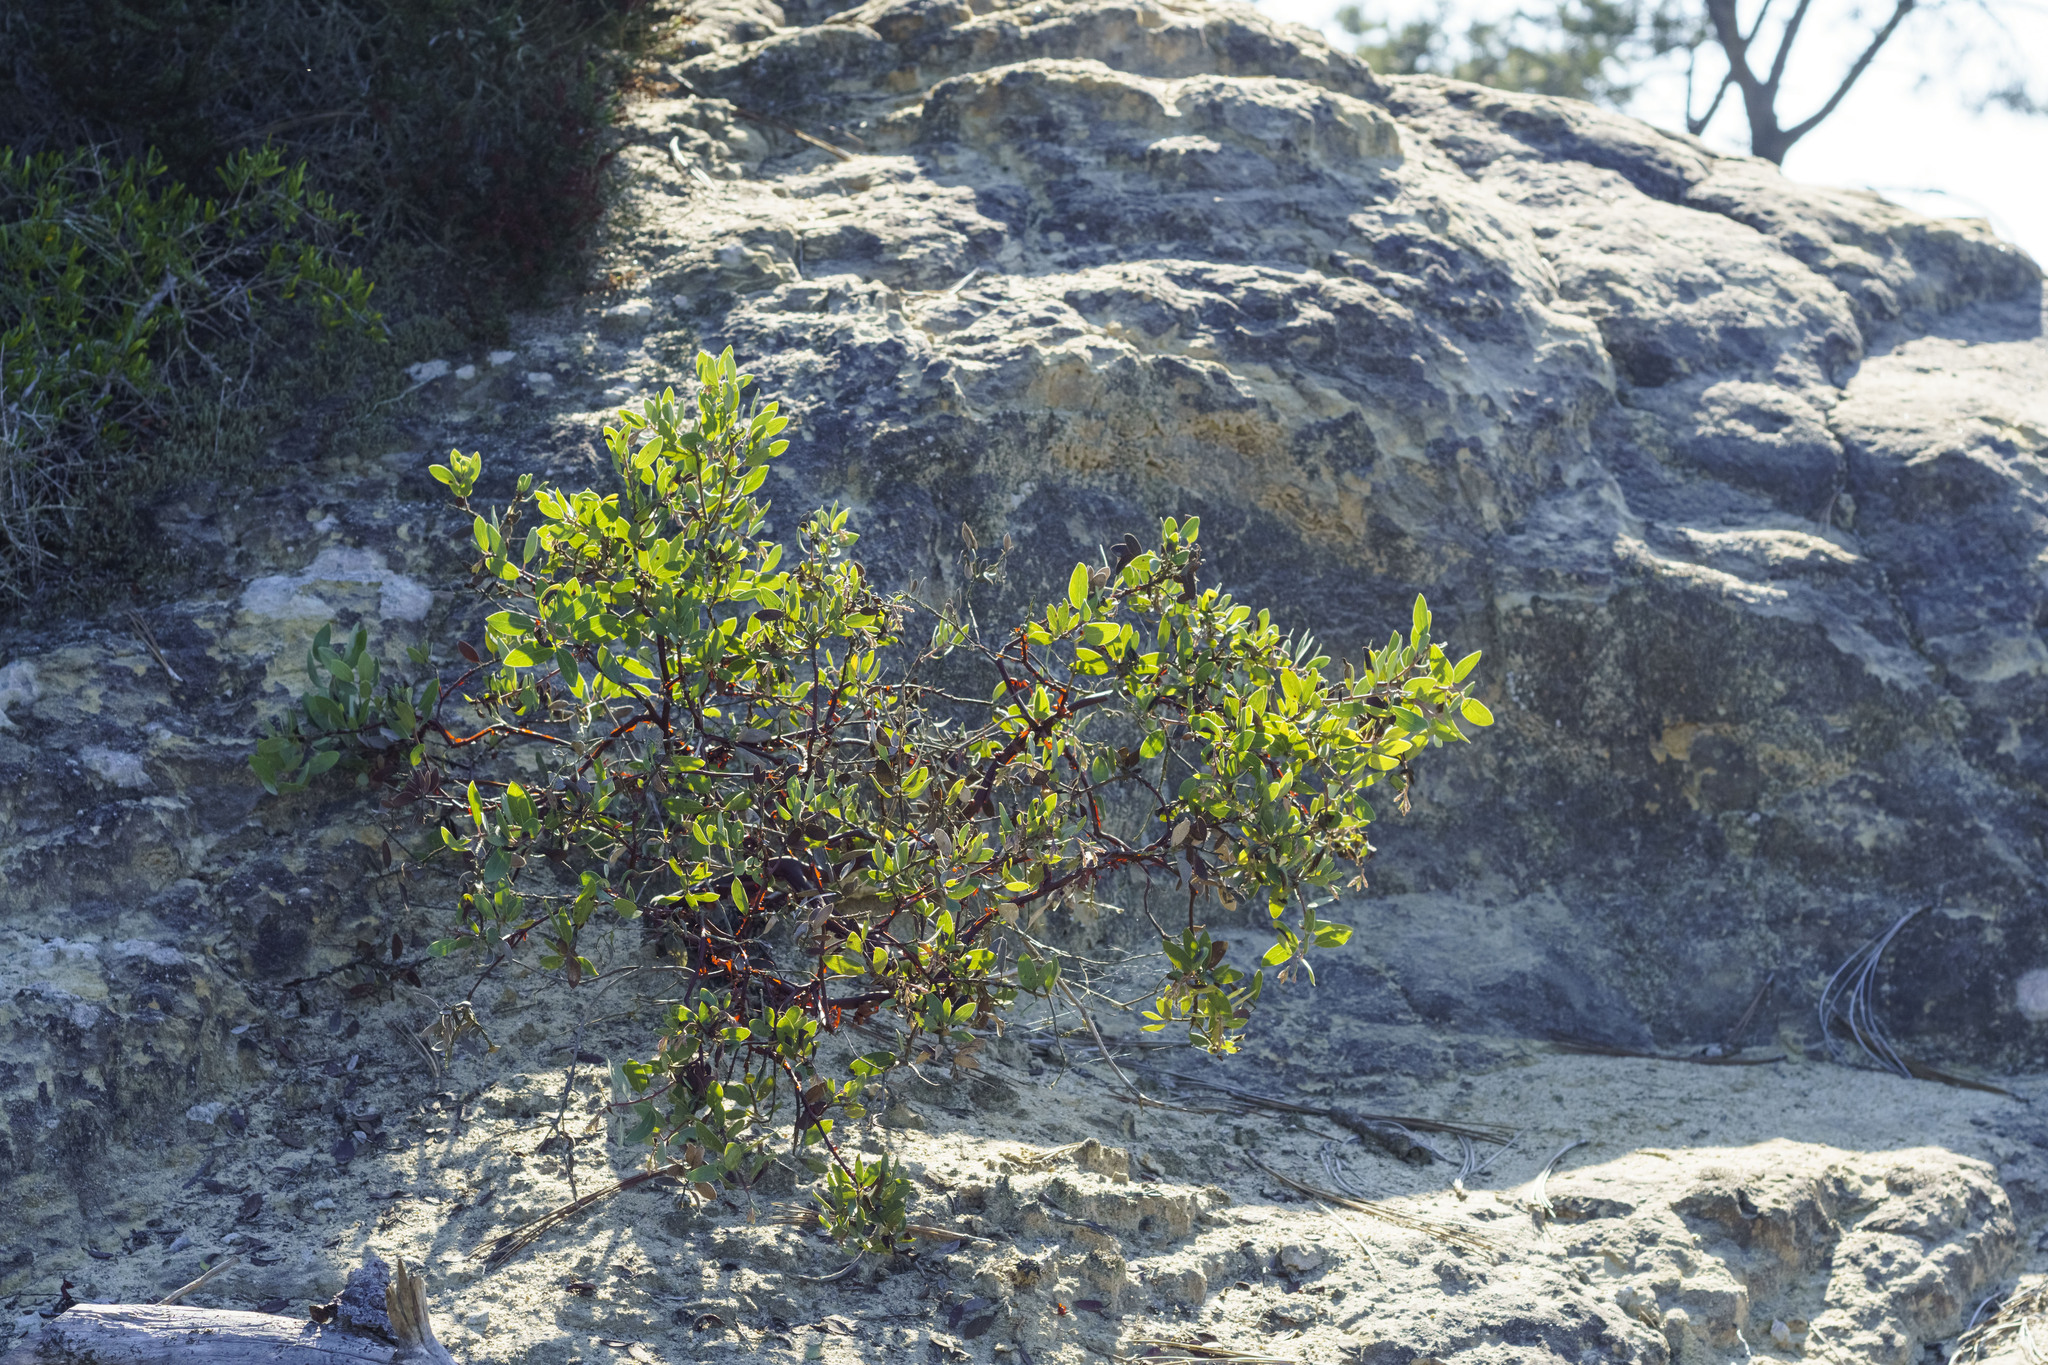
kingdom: Plantae
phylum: Tracheophyta
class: Magnoliopsida
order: Ericales
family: Ericaceae
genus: Arctostaphylos
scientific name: Arctostaphylos glandulosa
